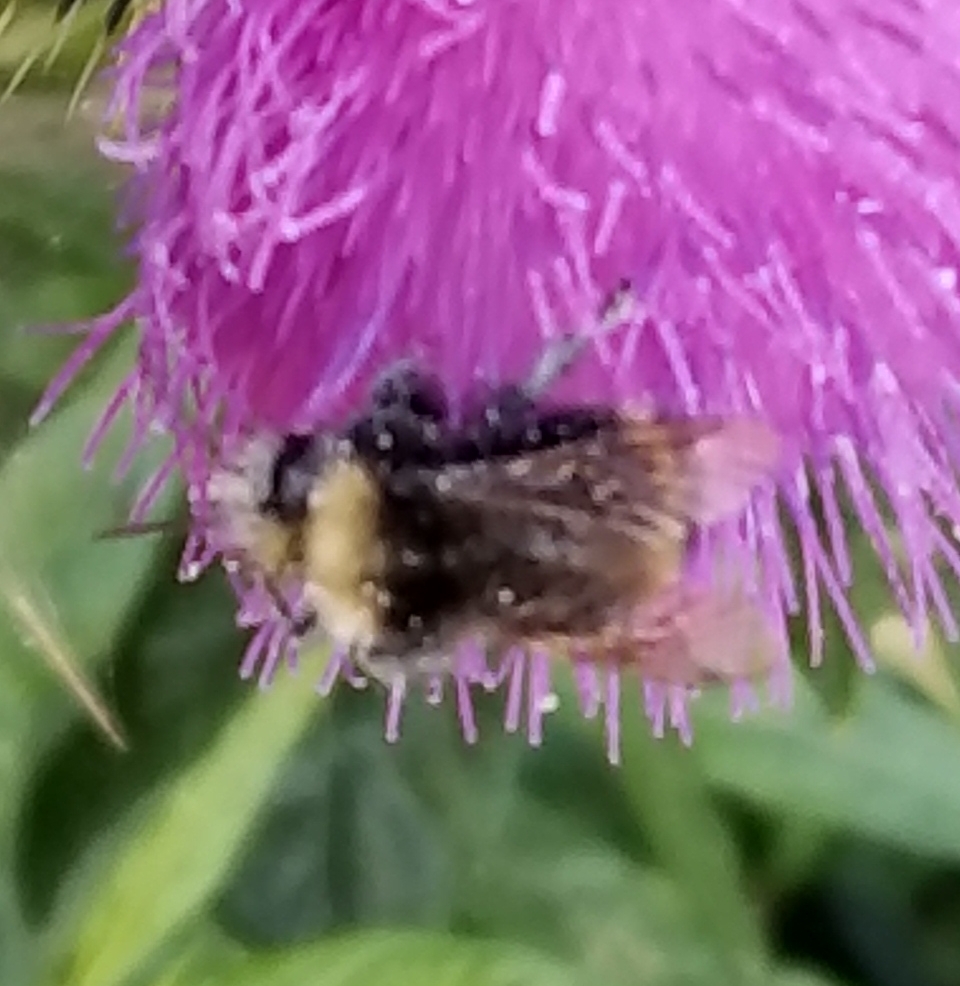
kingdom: Animalia
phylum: Arthropoda
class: Insecta
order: Hymenoptera
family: Apidae
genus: Bombus
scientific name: Bombus vosnesenskii
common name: Vosnesensky bumble bee
